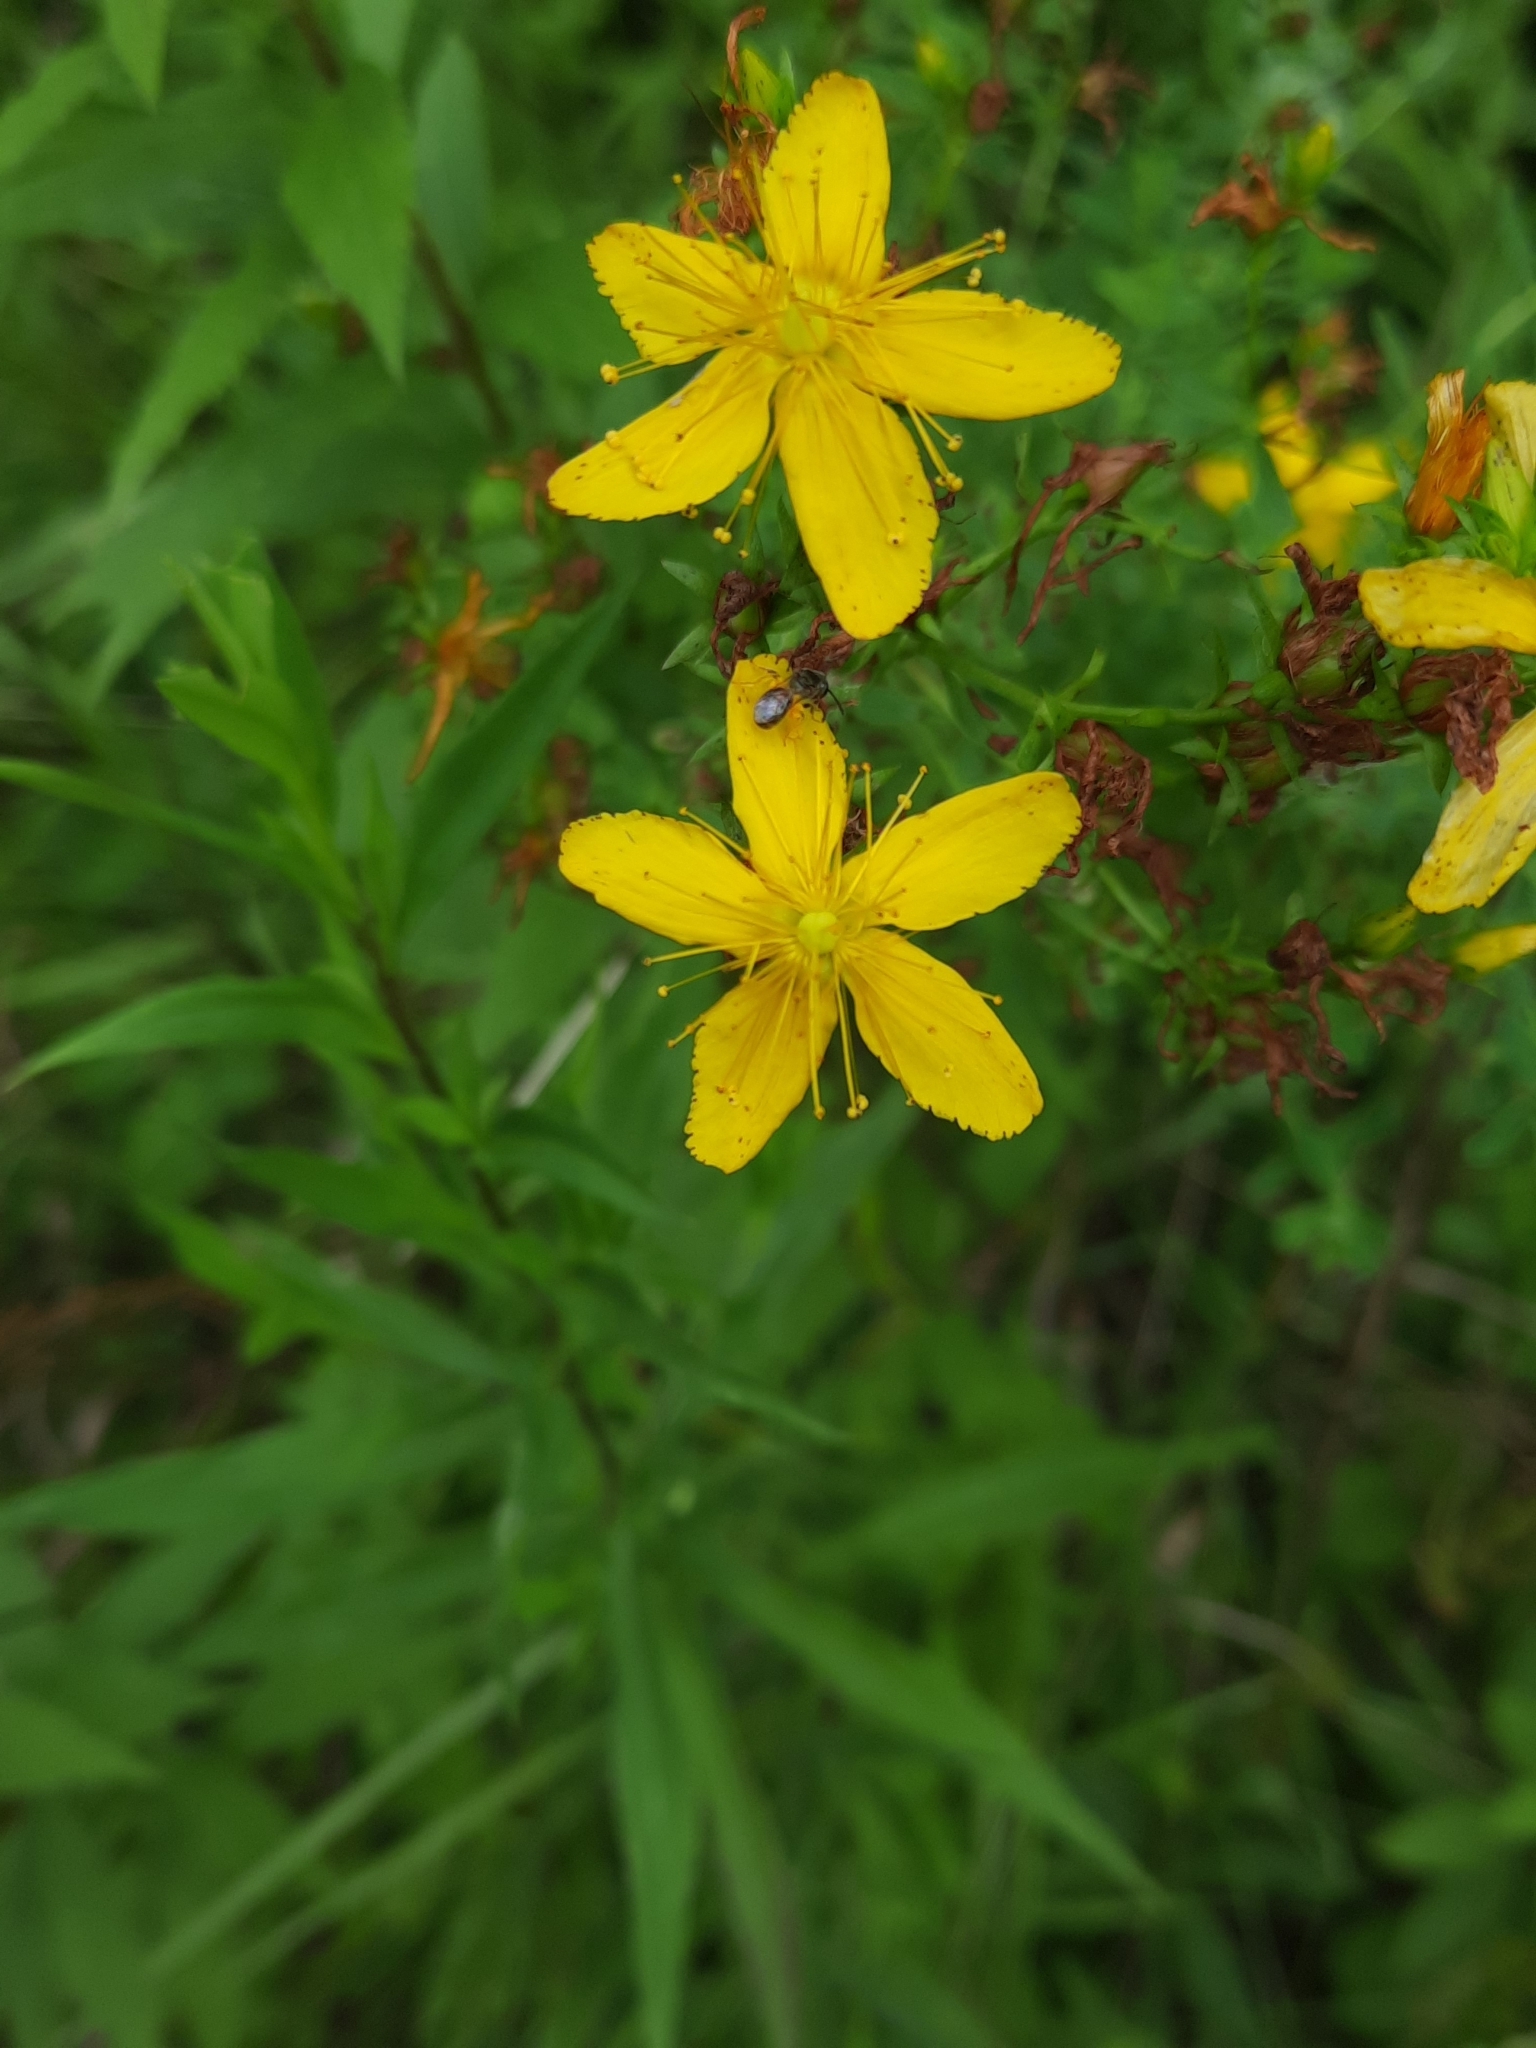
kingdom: Animalia
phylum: Arthropoda
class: Insecta
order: Hymenoptera
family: Halictidae
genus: Dialictus
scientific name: Dialictus
